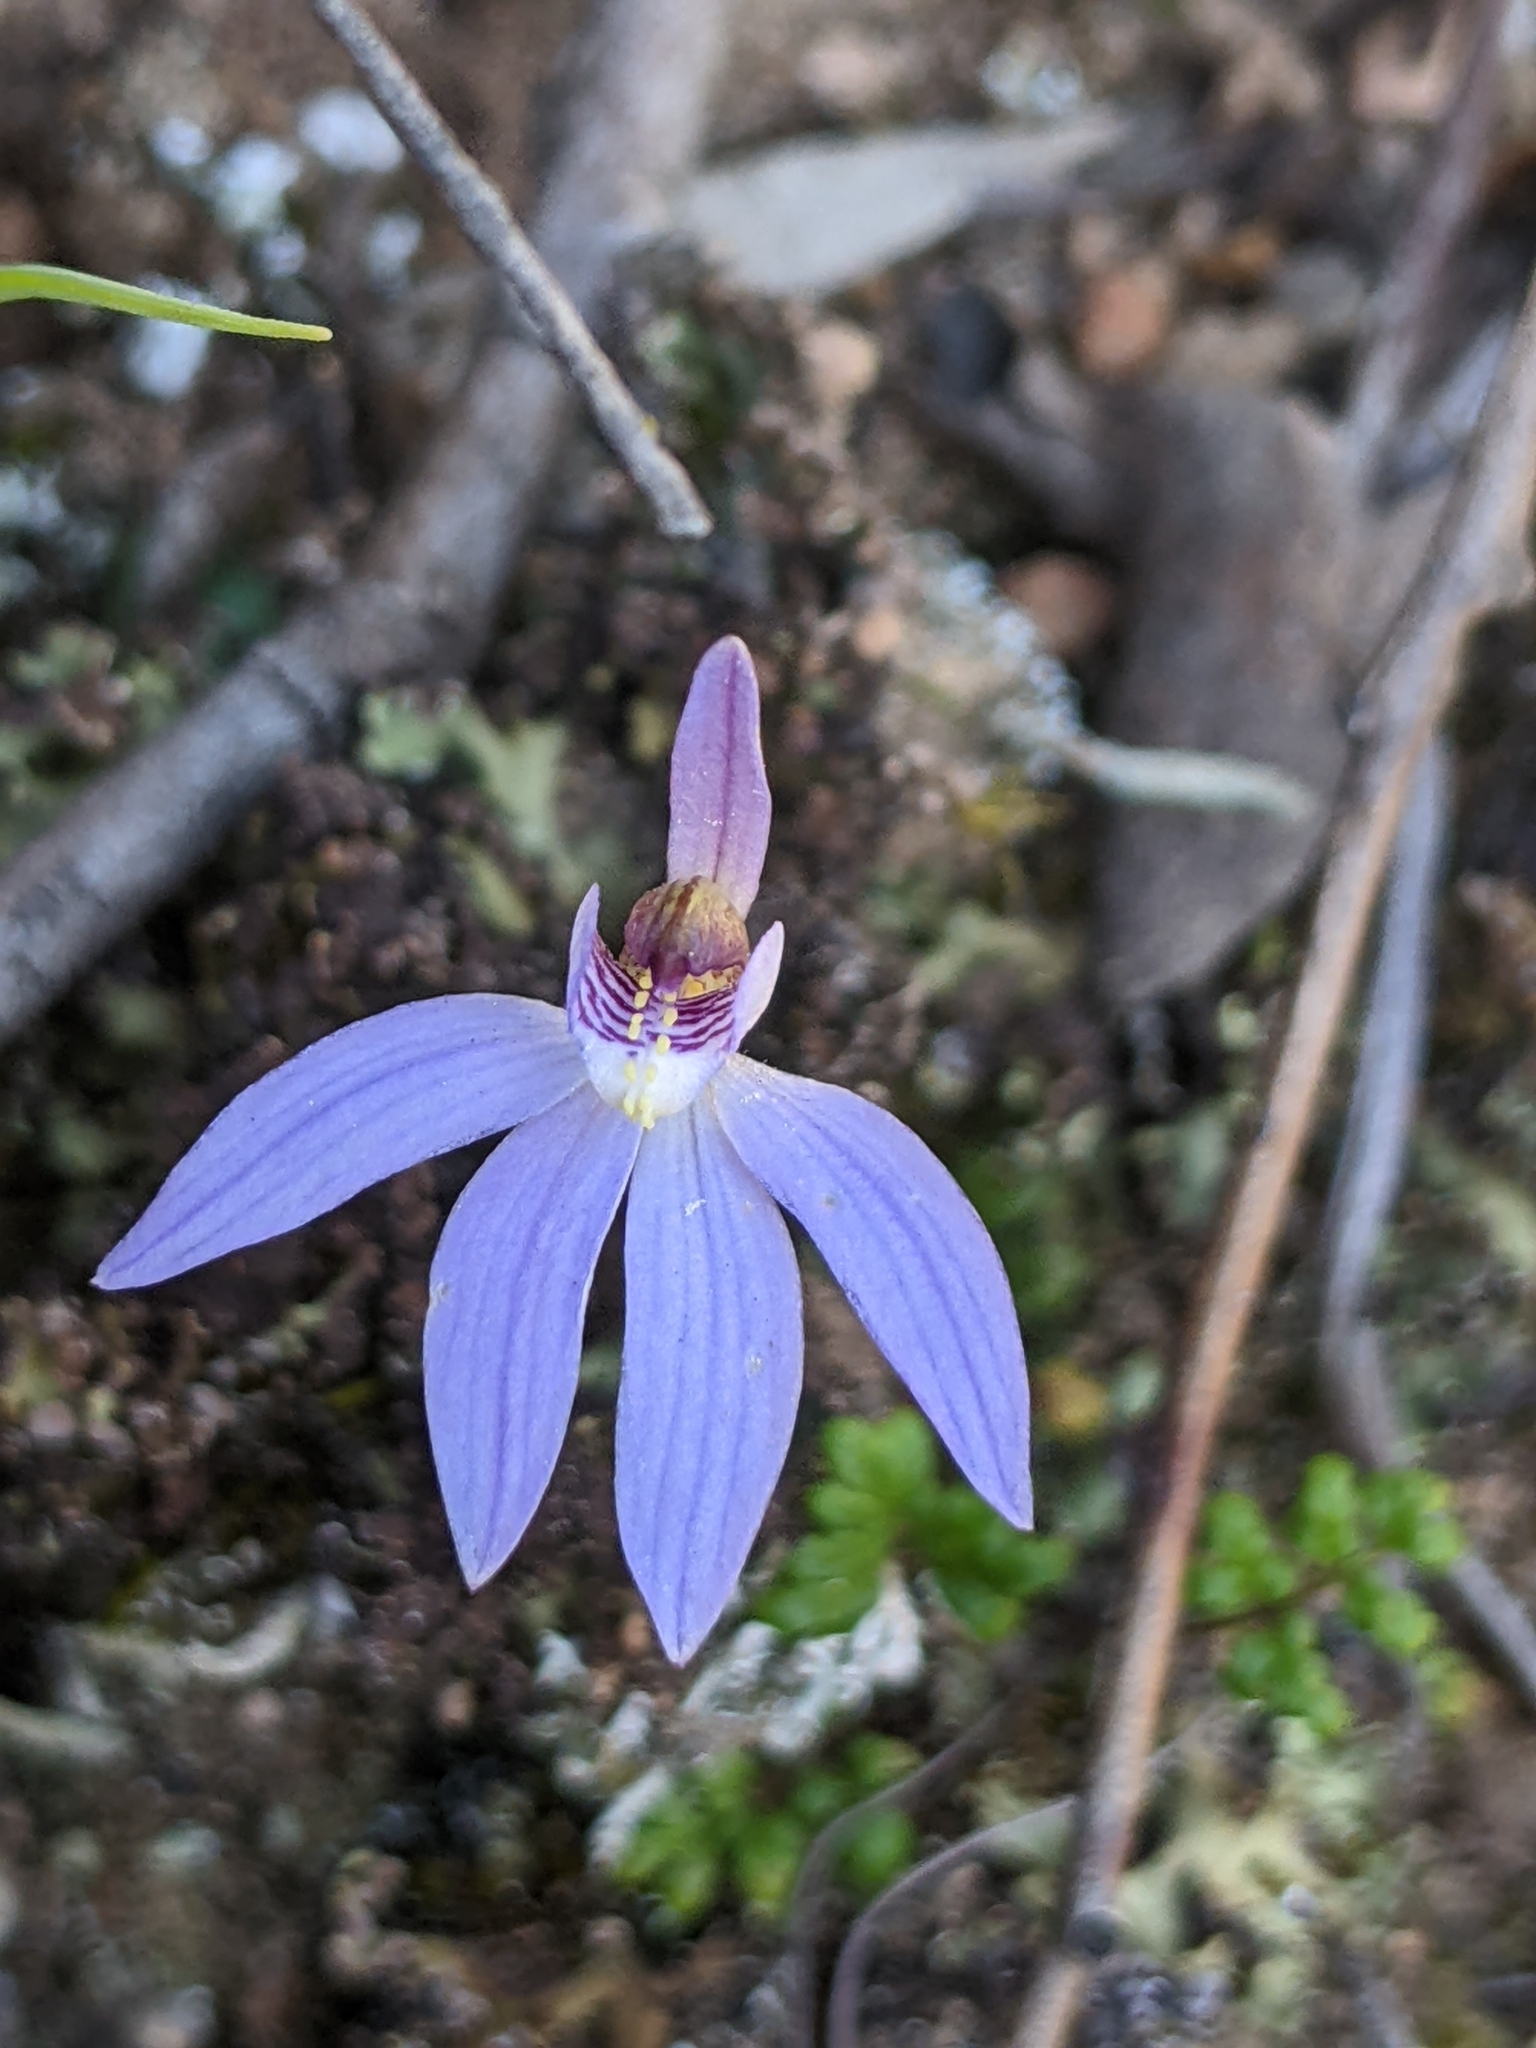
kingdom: Plantae
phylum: Tracheophyta
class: Liliopsida
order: Asparagales
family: Orchidaceae
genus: Caladenia
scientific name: Caladenia caerulea
